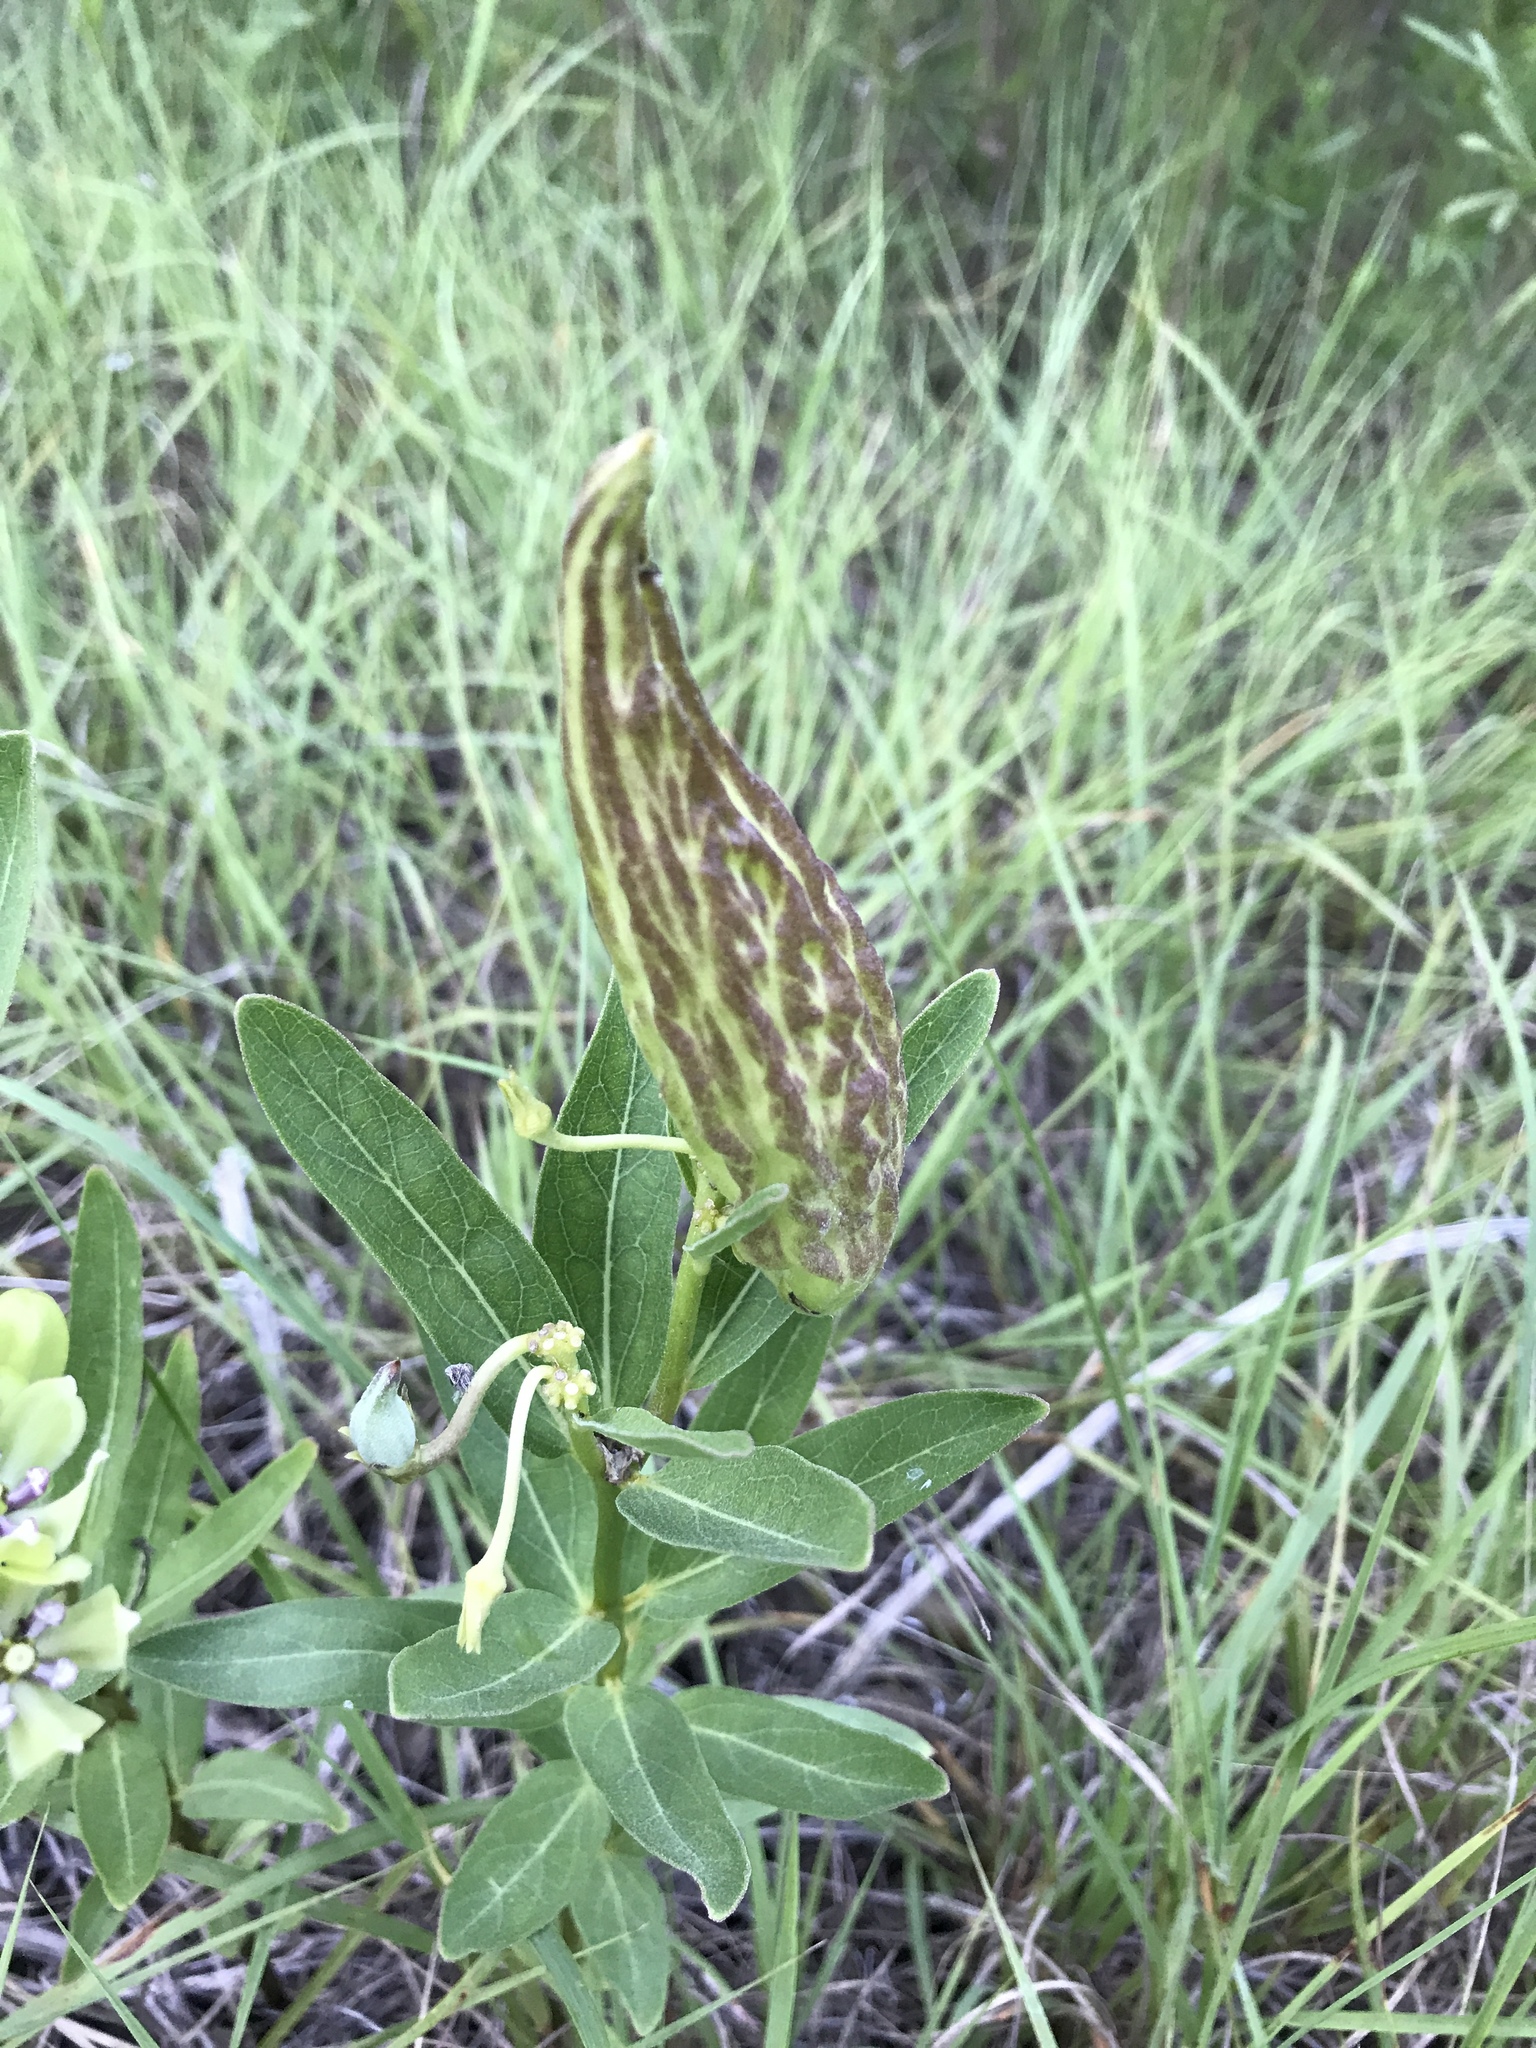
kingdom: Plantae
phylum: Tracheophyta
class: Magnoliopsida
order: Gentianales
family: Apocynaceae
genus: Asclepias
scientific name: Asclepias viridis
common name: Antelope-horns
